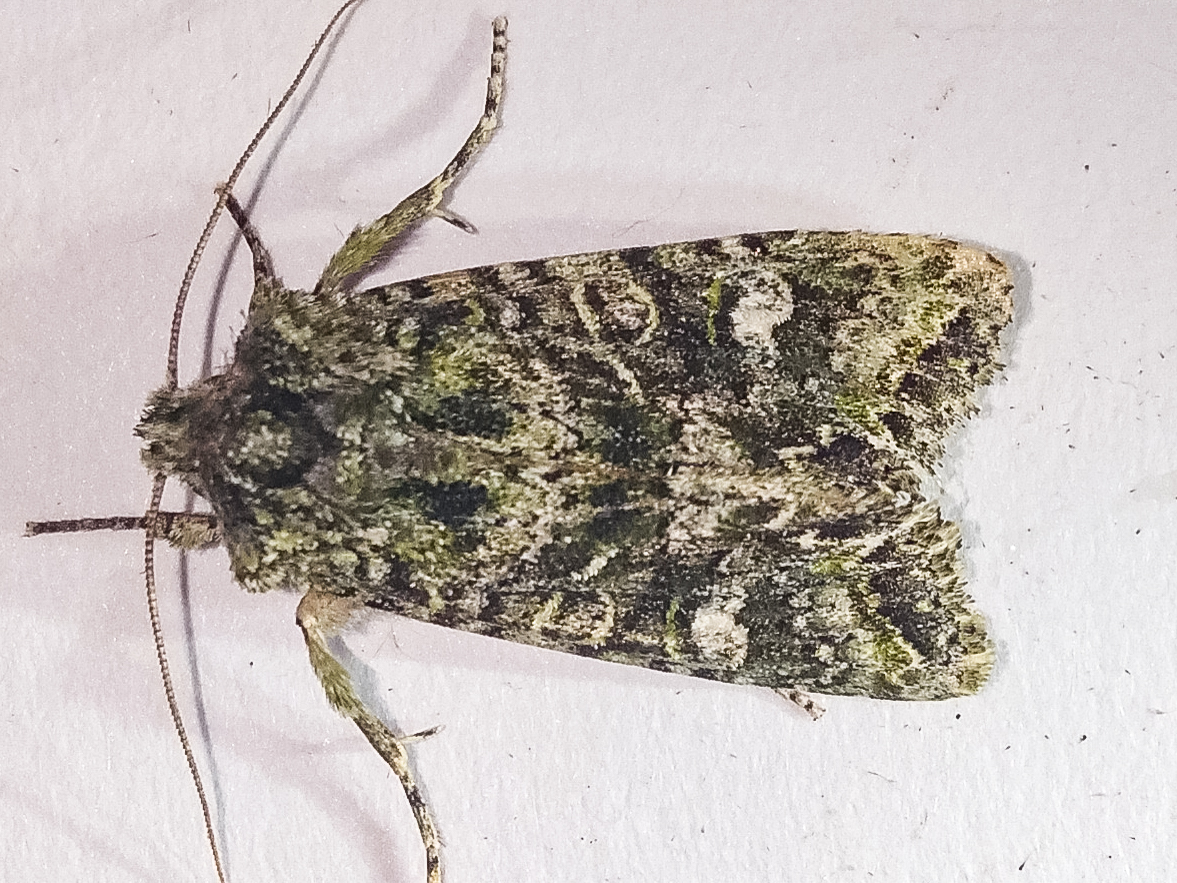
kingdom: Animalia
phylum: Arthropoda
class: Insecta
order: Lepidoptera
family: Noctuidae
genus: Ichneutica
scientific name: Ichneutica
